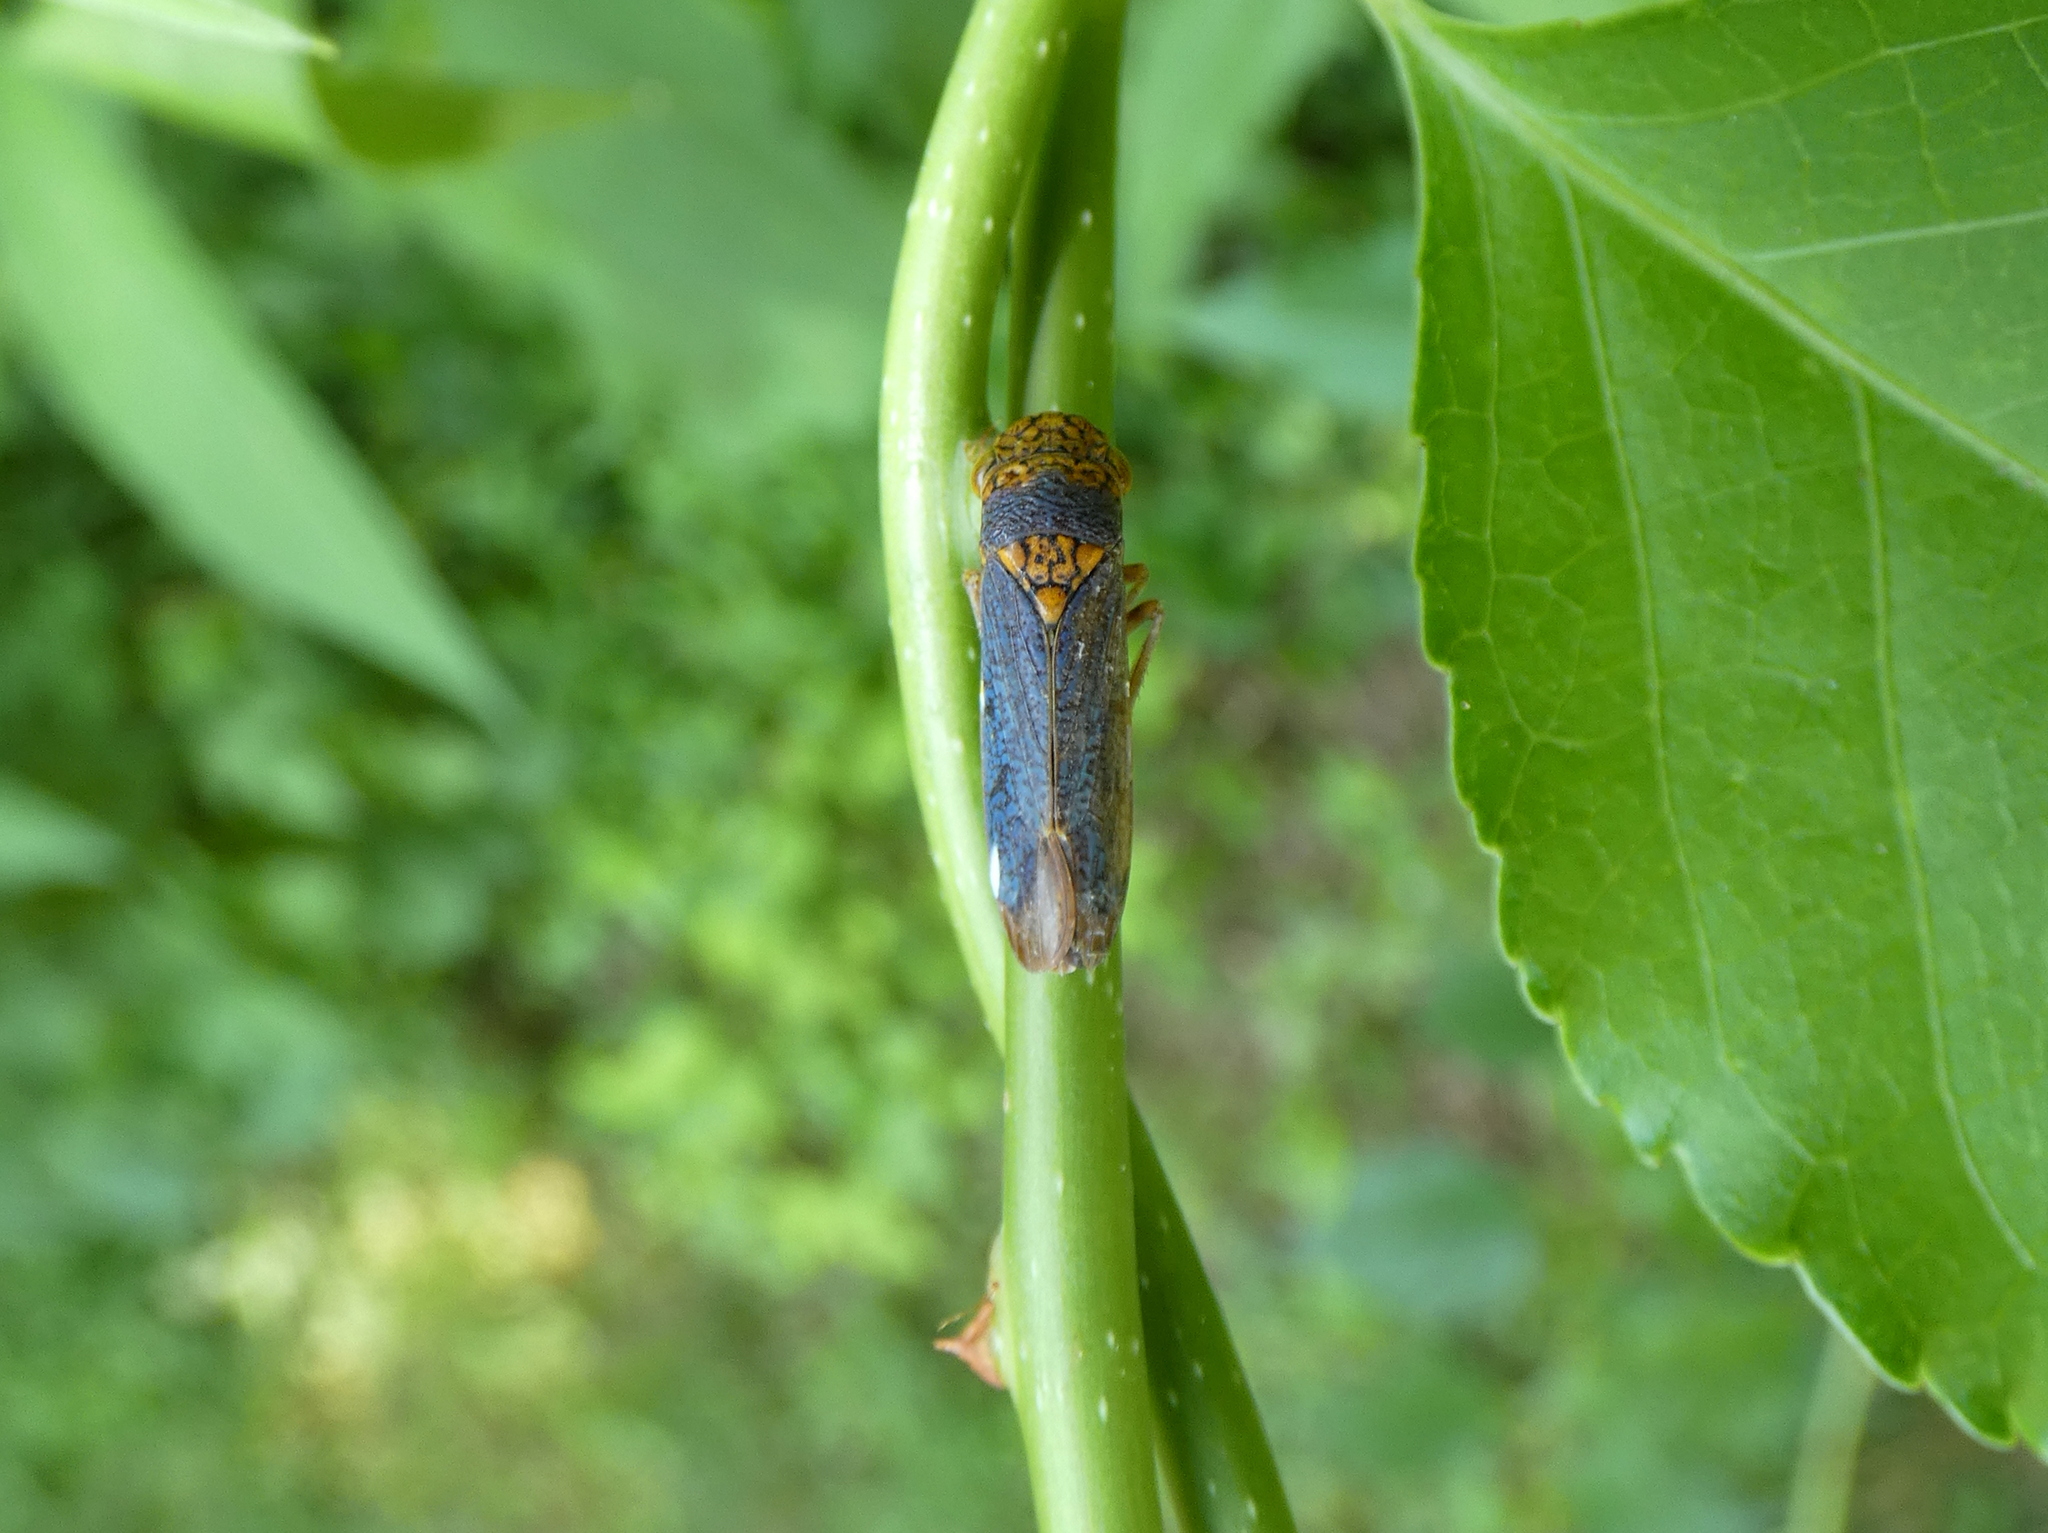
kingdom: Animalia
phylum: Arthropoda
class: Insecta
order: Hemiptera
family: Cicadellidae
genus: Oncometopia
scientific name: Oncometopia orbona
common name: Broad-headed sharpshooter
